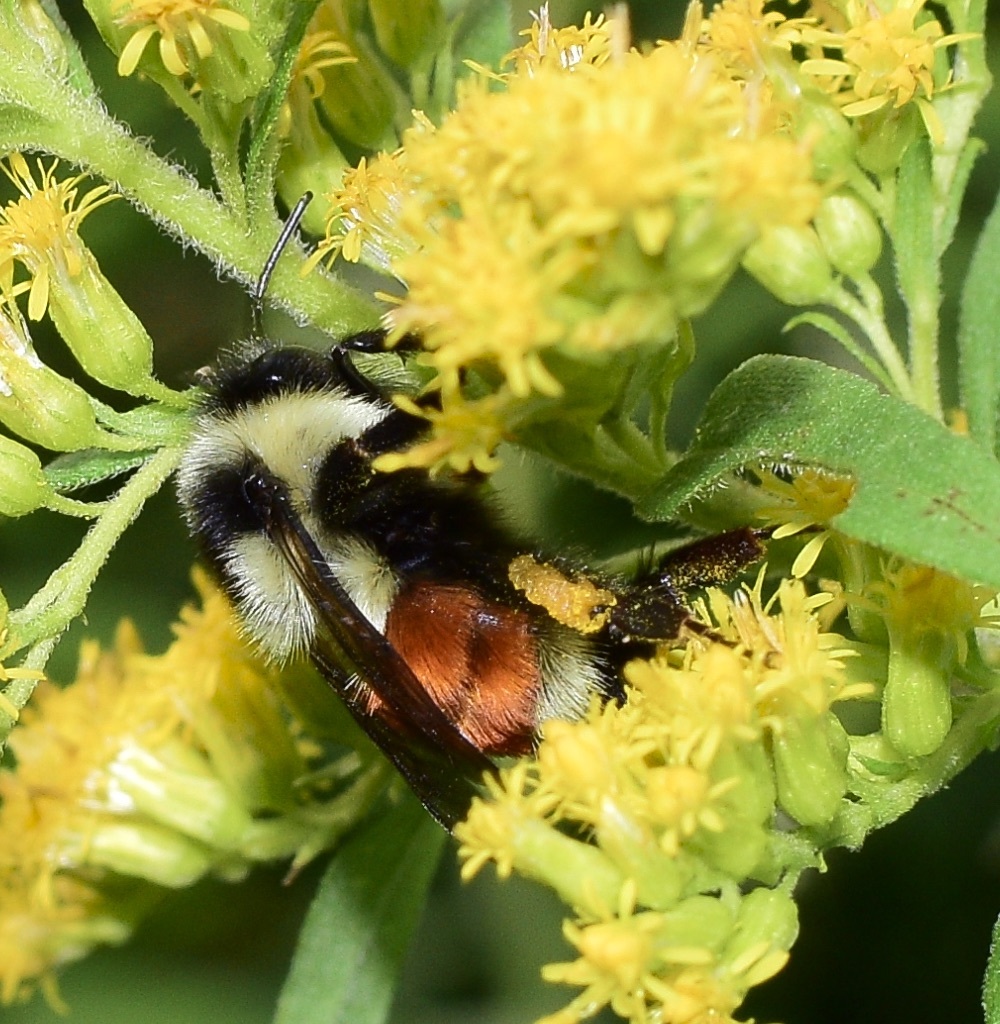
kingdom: Animalia
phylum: Arthropoda
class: Insecta
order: Hymenoptera
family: Apidae
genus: Bombus
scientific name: Bombus ternarius
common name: Tri-colored bumble bee
